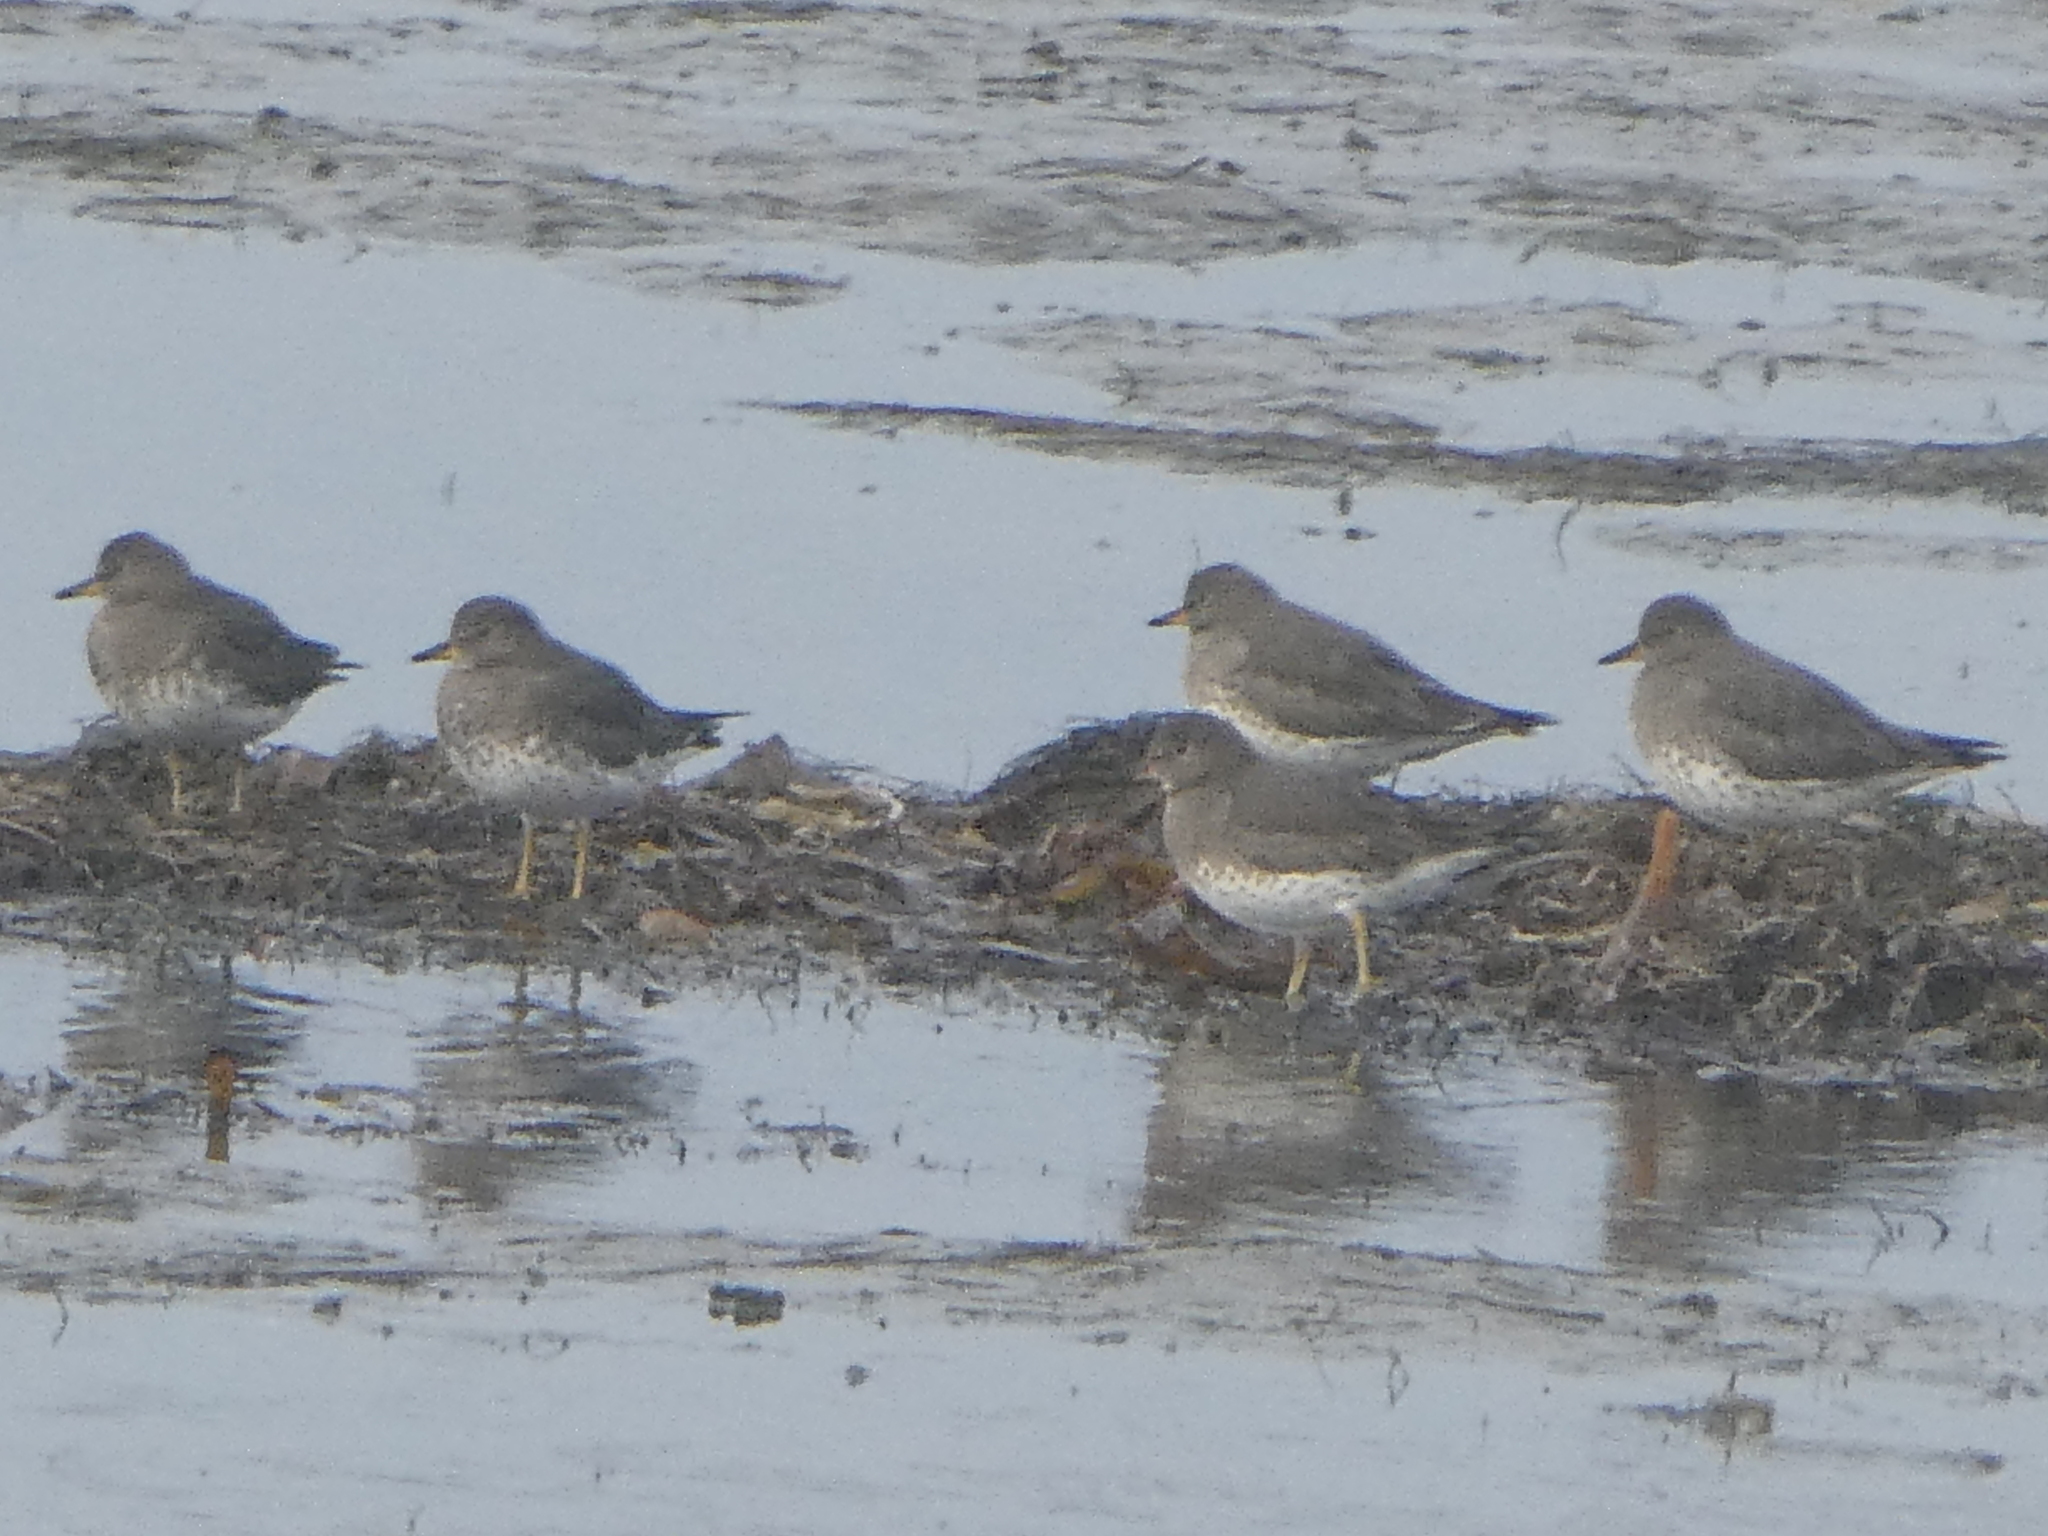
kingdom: Animalia
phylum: Chordata
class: Aves
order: Charadriiformes
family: Scolopacidae
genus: Calidris
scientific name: Calidris virgata
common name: Surfbird
